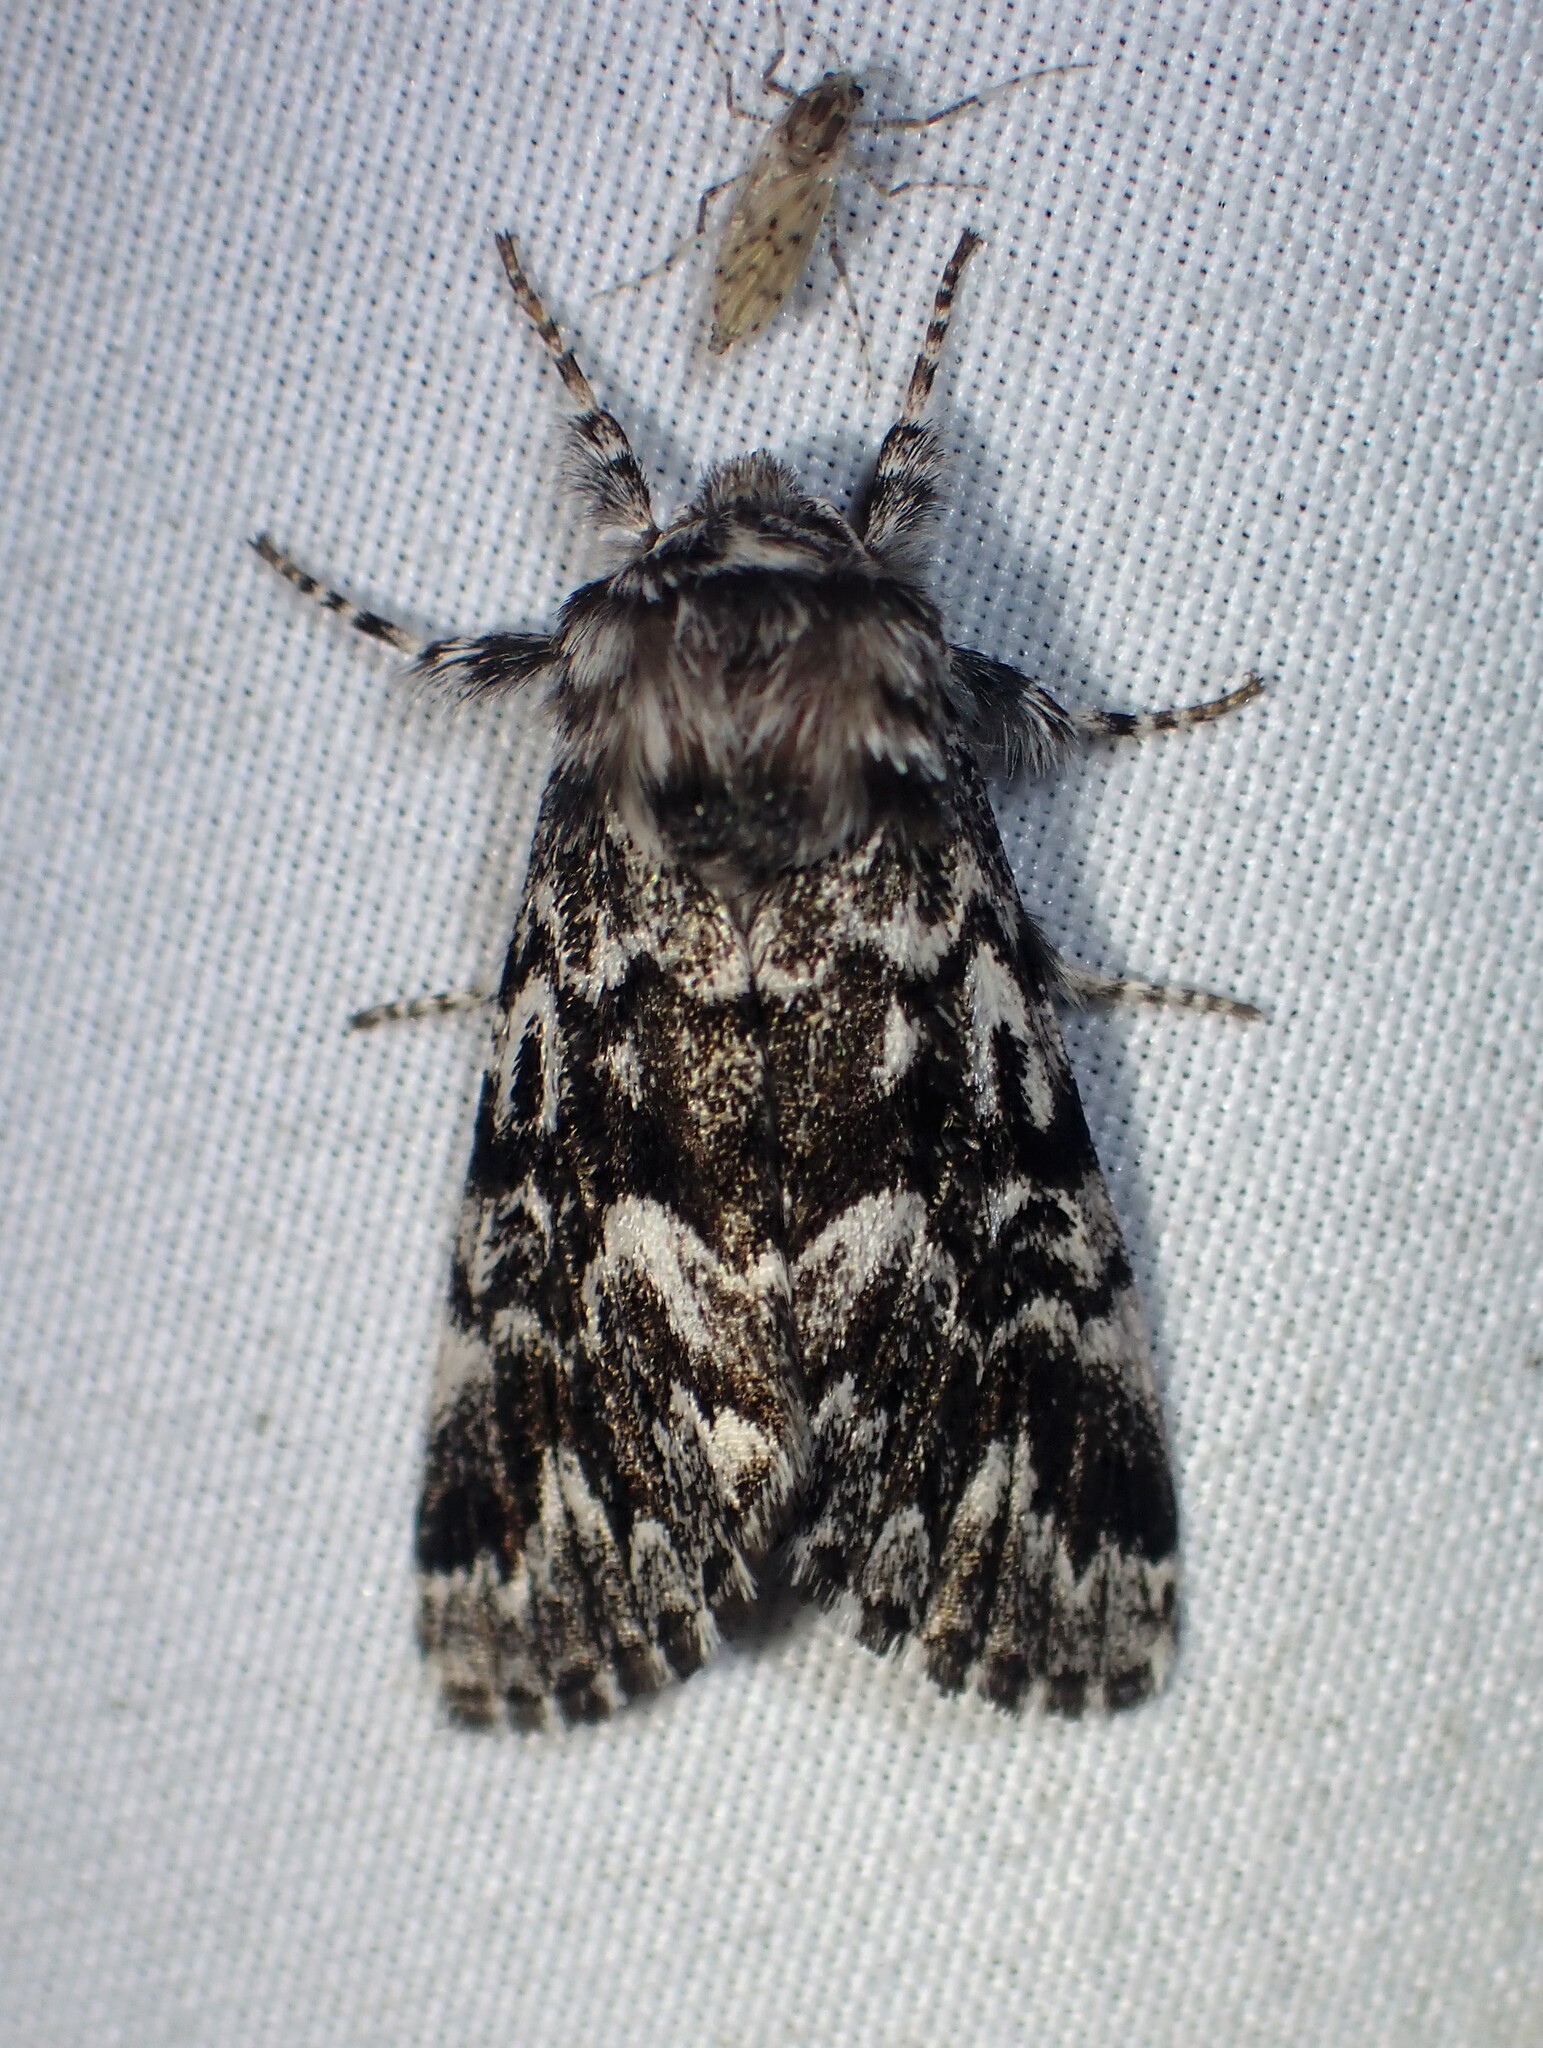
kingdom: Animalia
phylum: Arthropoda
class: Insecta
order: Lepidoptera
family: Noctuidae
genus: Panthea
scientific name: Panthea acronyctoides
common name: Black zigzag moth
